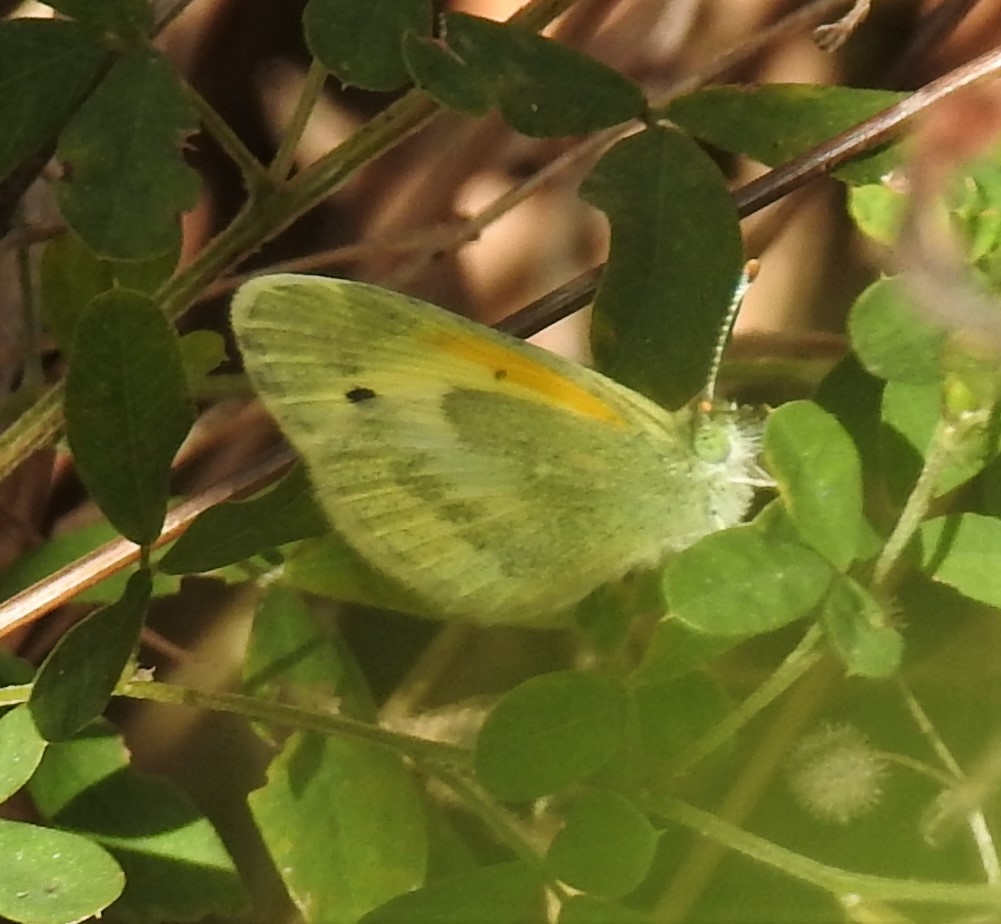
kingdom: Animalia
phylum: Arthropoda
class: Insecta
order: Lepidoptera
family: Pieridae
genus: Nathalis
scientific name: Nathalis iole
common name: Dainty sulphur
